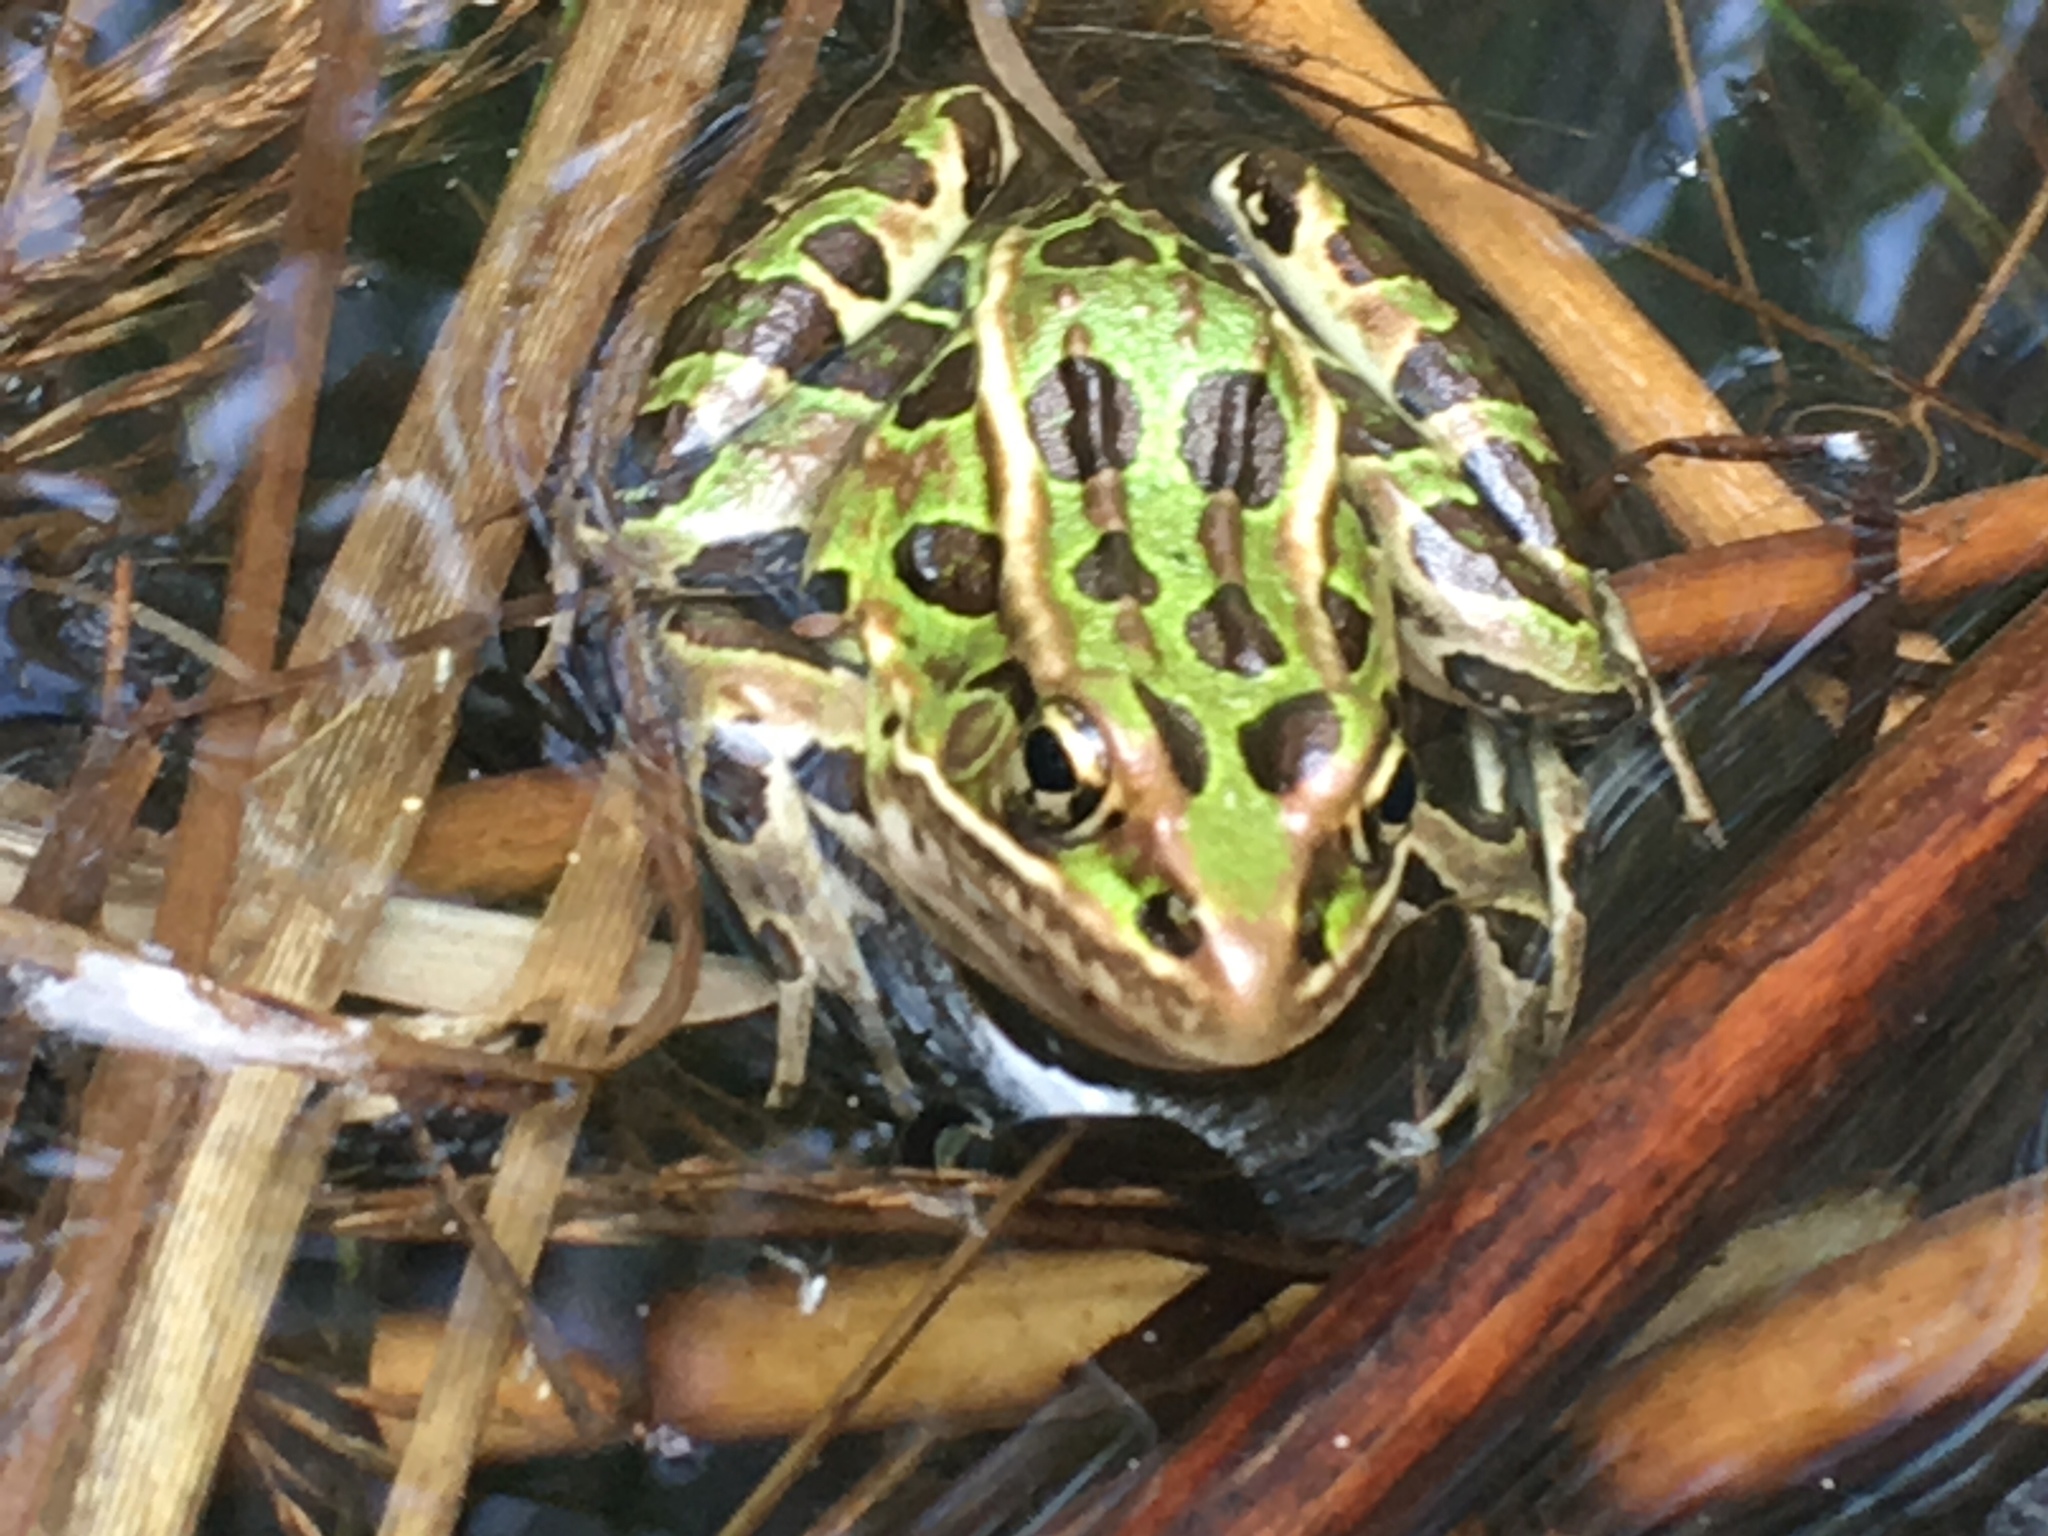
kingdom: Animalia
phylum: Chordata
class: Amphibia
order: Anura
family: Ranidae
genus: Lithobates
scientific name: Lithobates pipiens
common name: Northern leopard frog
